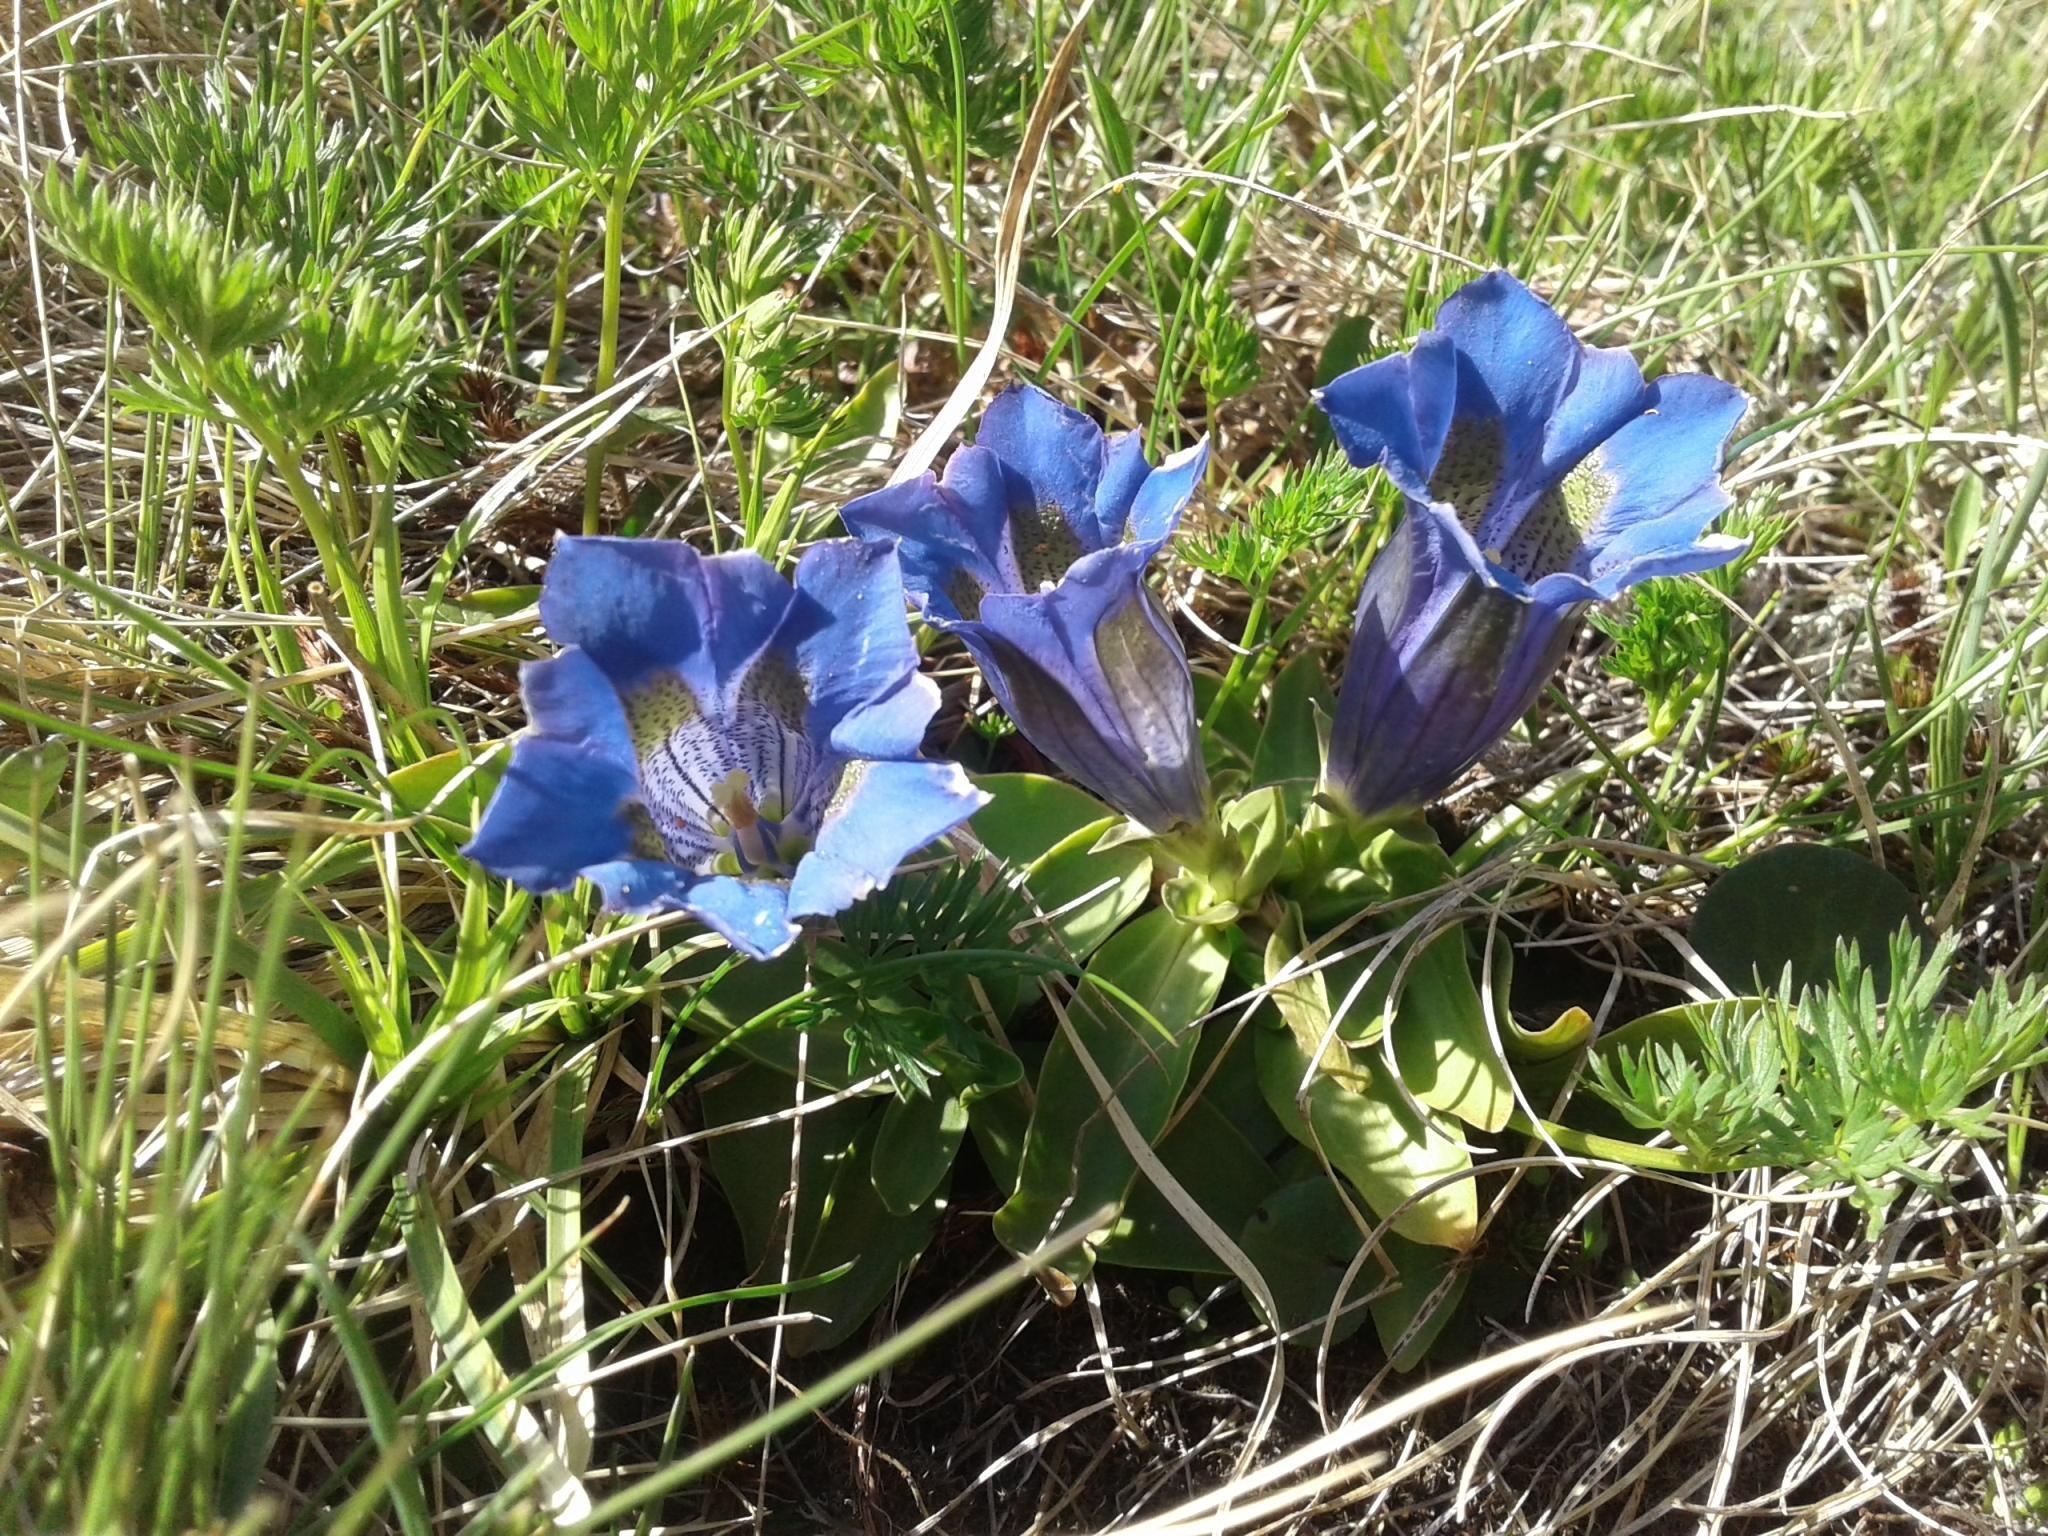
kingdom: Plantae
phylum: Tracheophyta
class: Magnoliopsida
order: Gentianales
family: Gentianaceae
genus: Gentiana
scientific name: Gentiana acaulis
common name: Trumpet gentian
